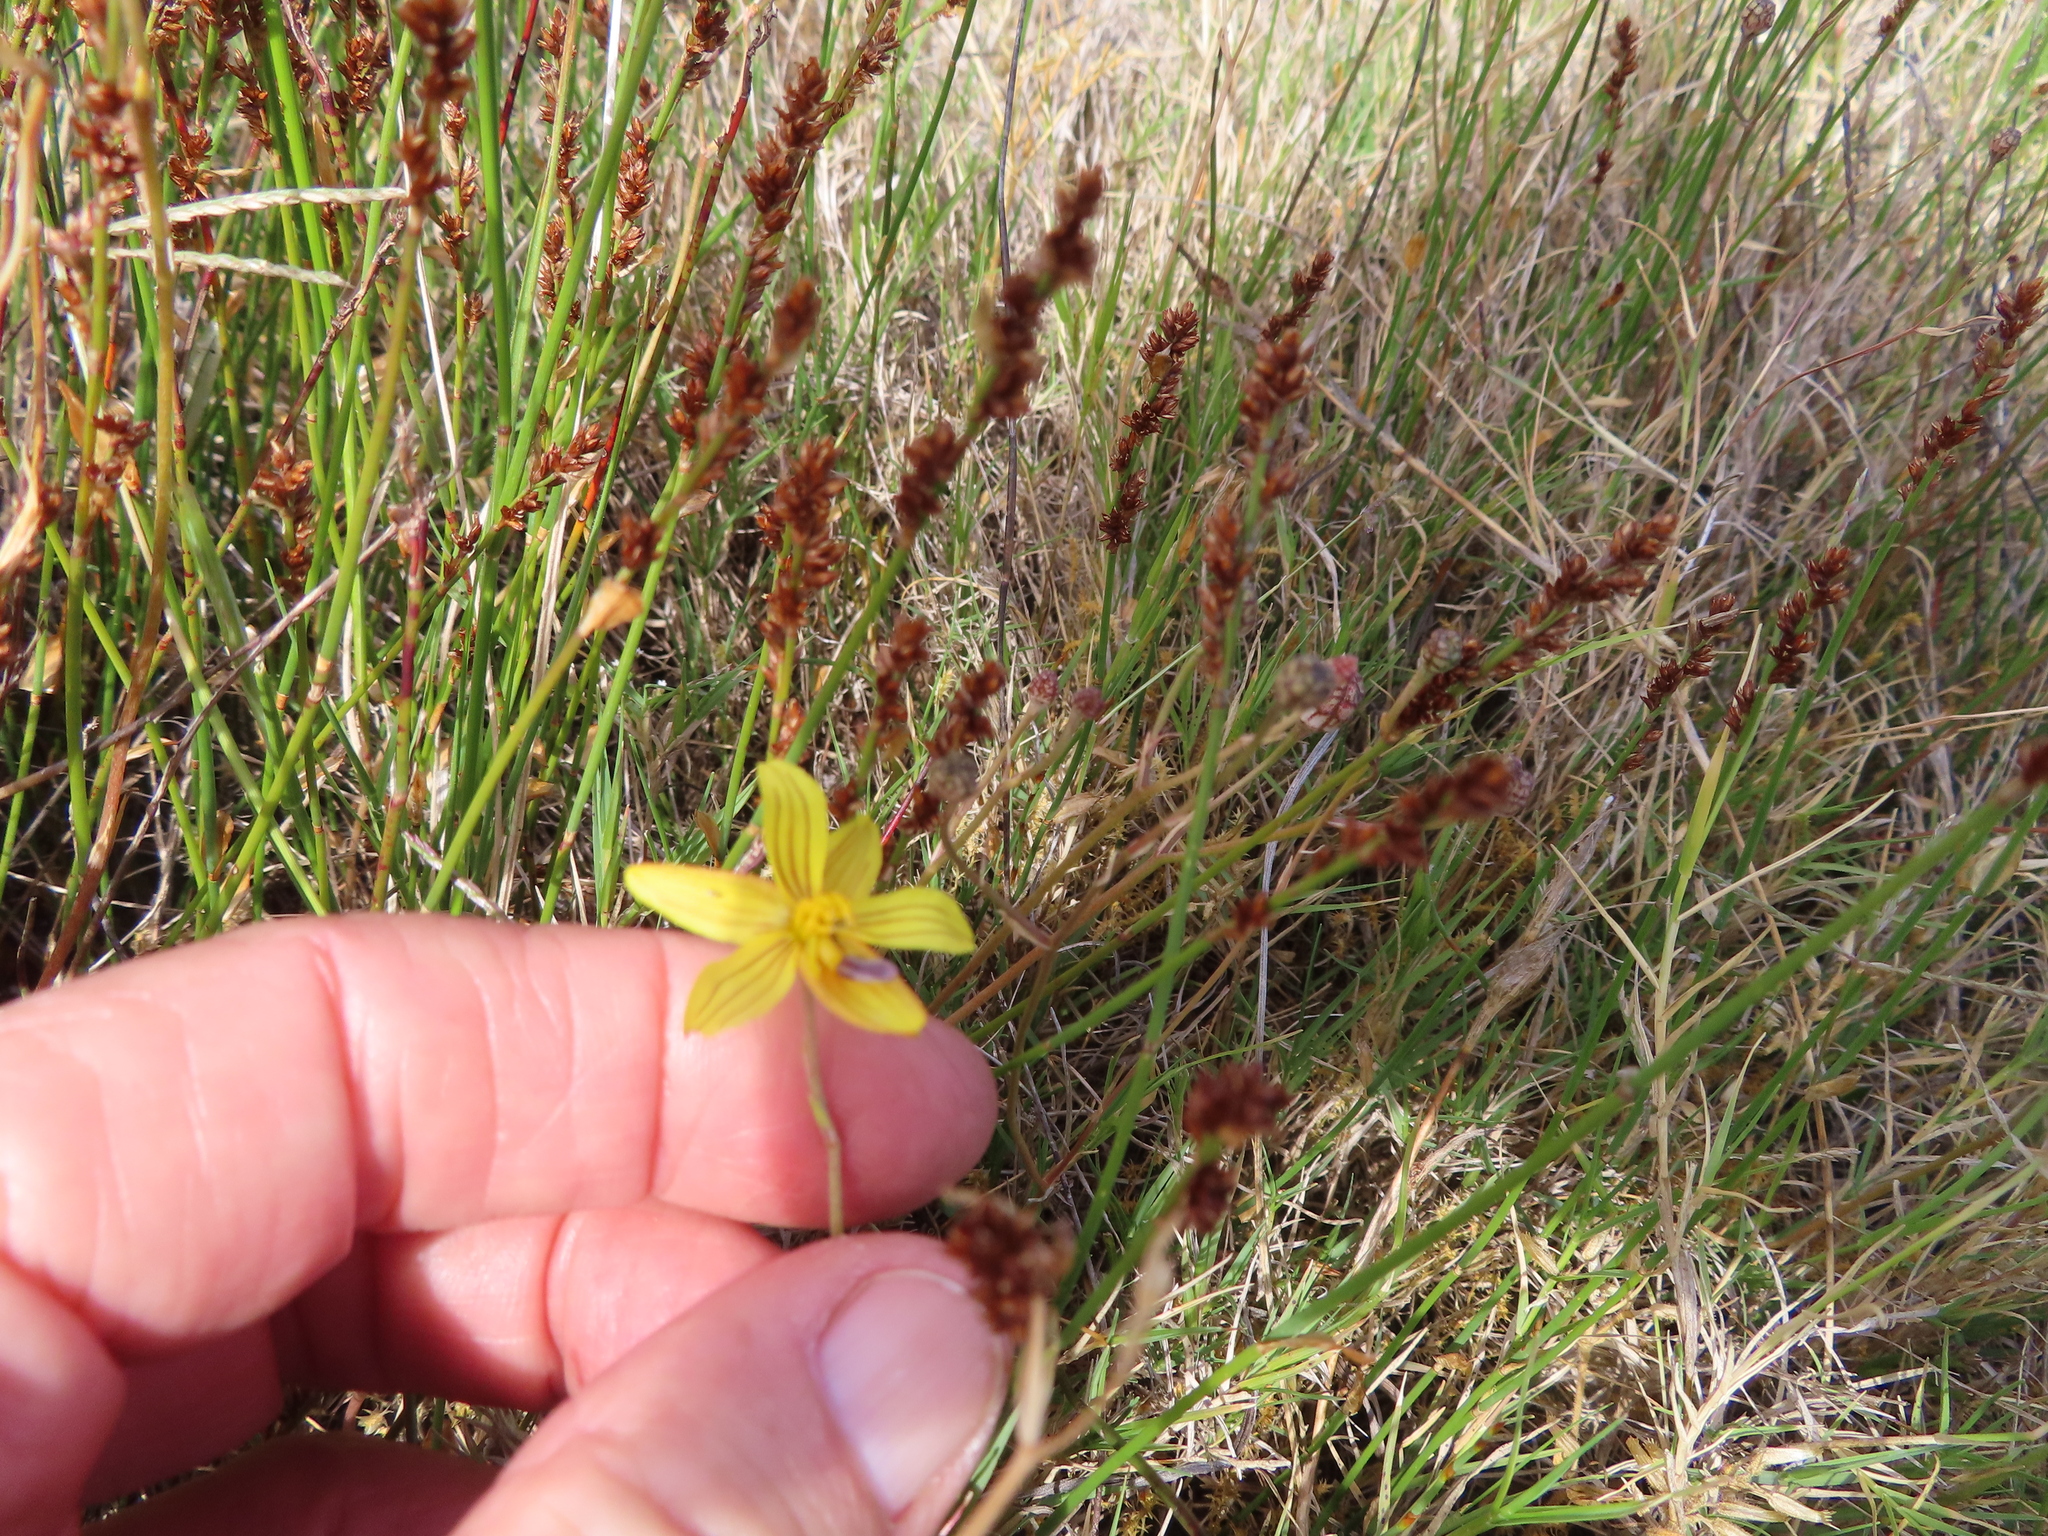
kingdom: Plantae
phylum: Tracheophyta
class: Liliopsida
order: Asparagales
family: Tecophilaeaceae
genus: Cyanella
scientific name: Cyanella lutea
